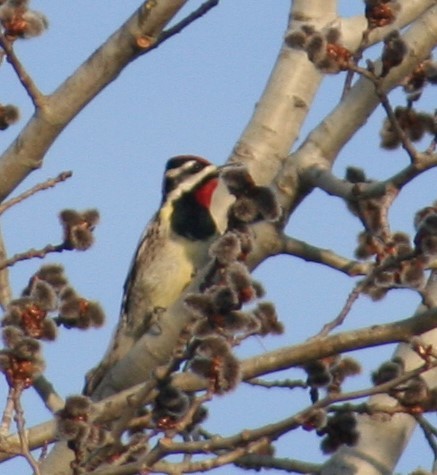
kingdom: Animalia
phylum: Chordata
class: Aves
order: Piciformes
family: Picidae
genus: Sphyrapicus
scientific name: Sphyrapicus varius
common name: Yellow-bellied sapsucker
